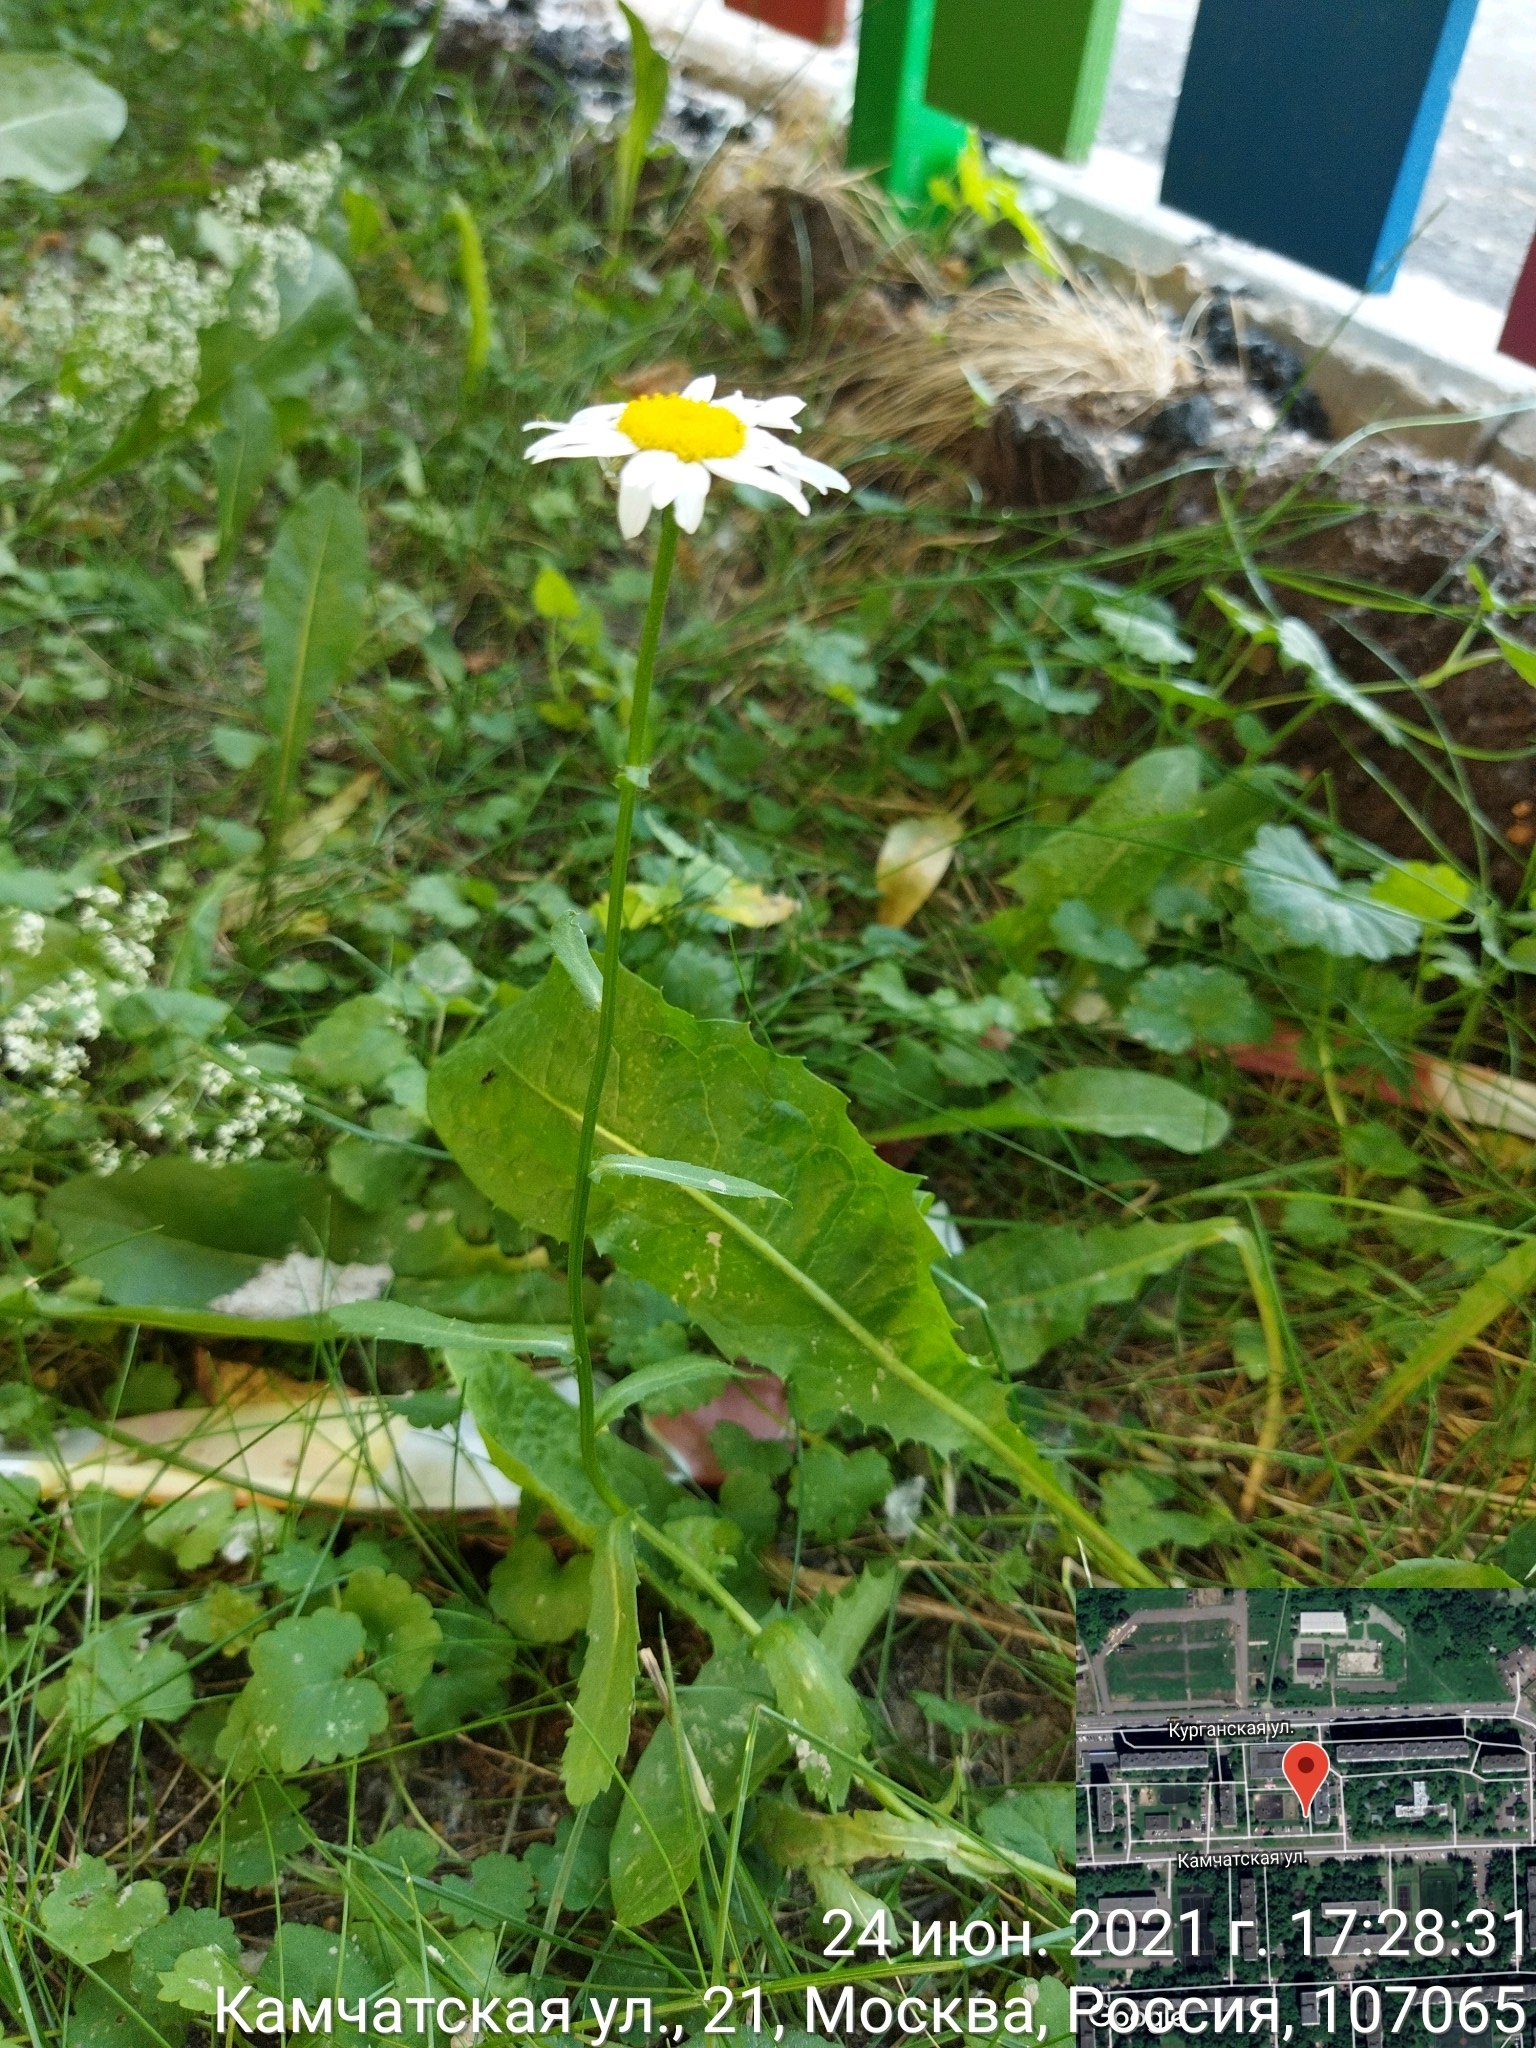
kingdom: Plantae
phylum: Tracheophyta
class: Magnoliopsida
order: Asterales
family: Asteraceae
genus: Leucanthemum
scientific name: Leucanthemum vulgare
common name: Oxeye daisy
